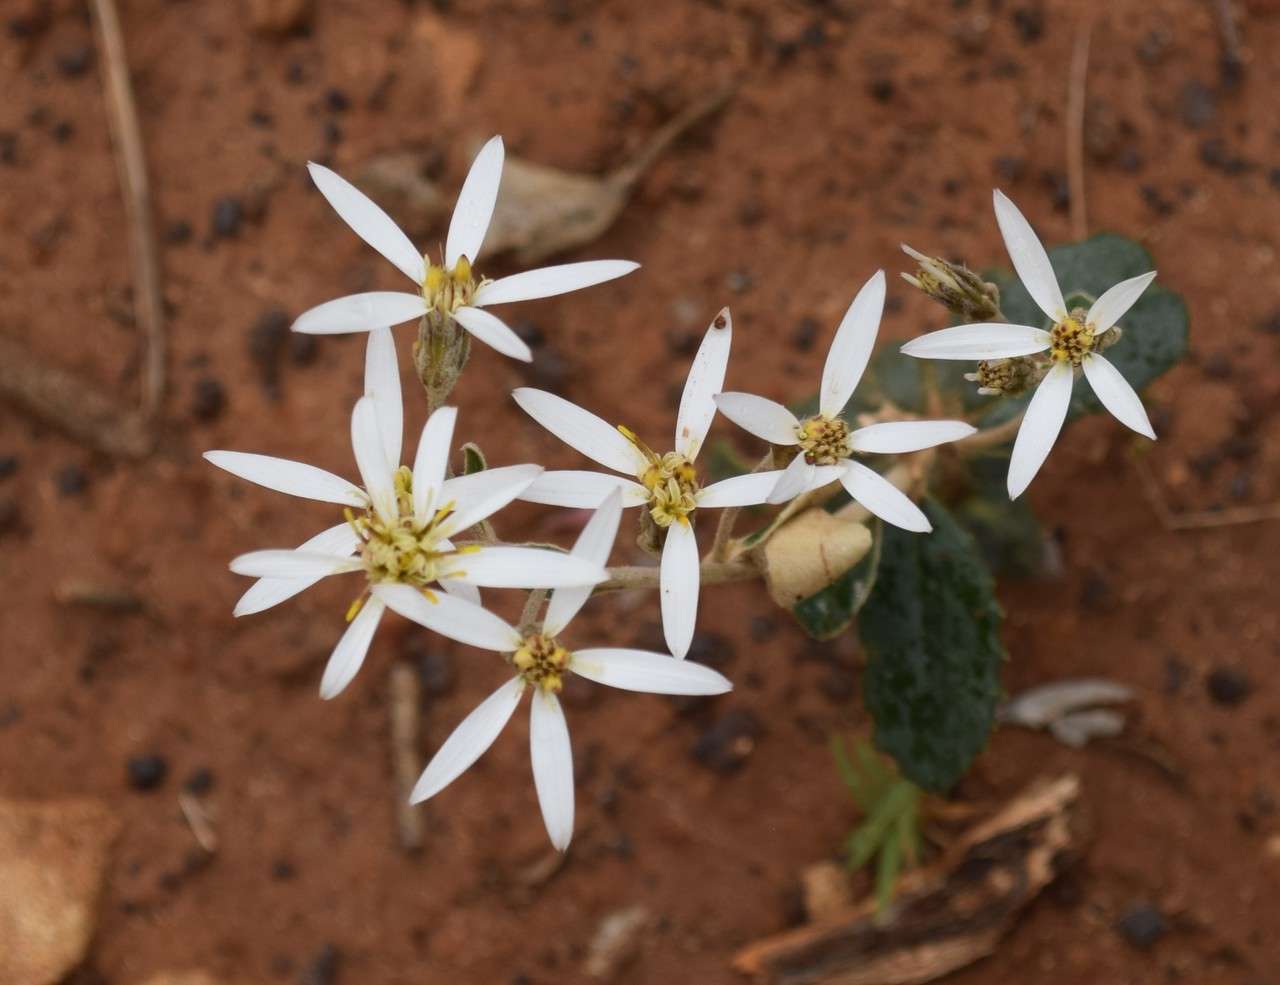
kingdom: Plantae
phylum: Tracheophyta
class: Magnoliopsida
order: Asterales
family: Asteraceae
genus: Olearia
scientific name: Olearia speciosa
